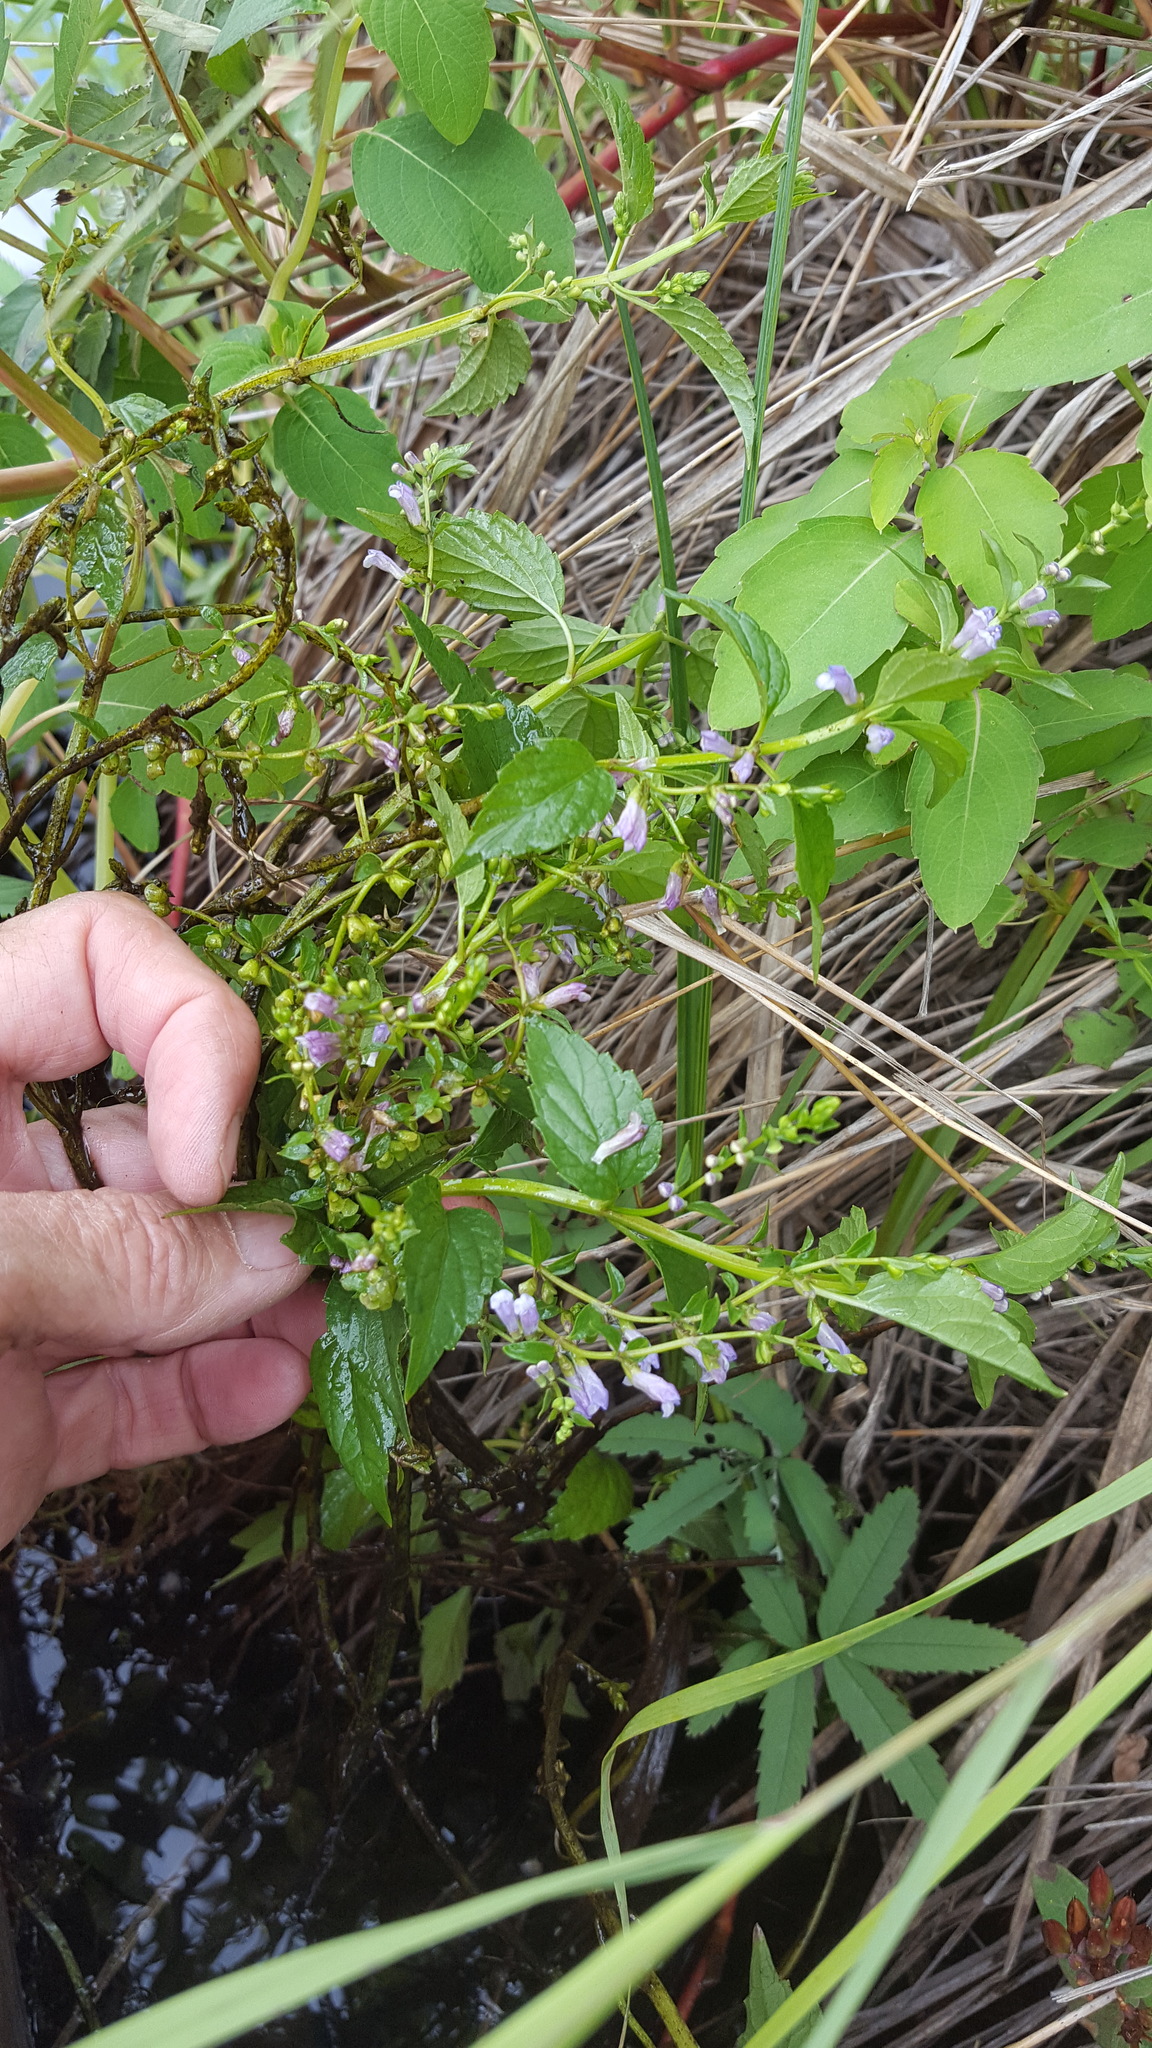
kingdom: Plantae
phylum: Tracheophyta
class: Magnoliopsida
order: Lamiales
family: Lamiaceae
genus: Scutellaria
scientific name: Scutellaria lateriflora
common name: Blue skullcap
